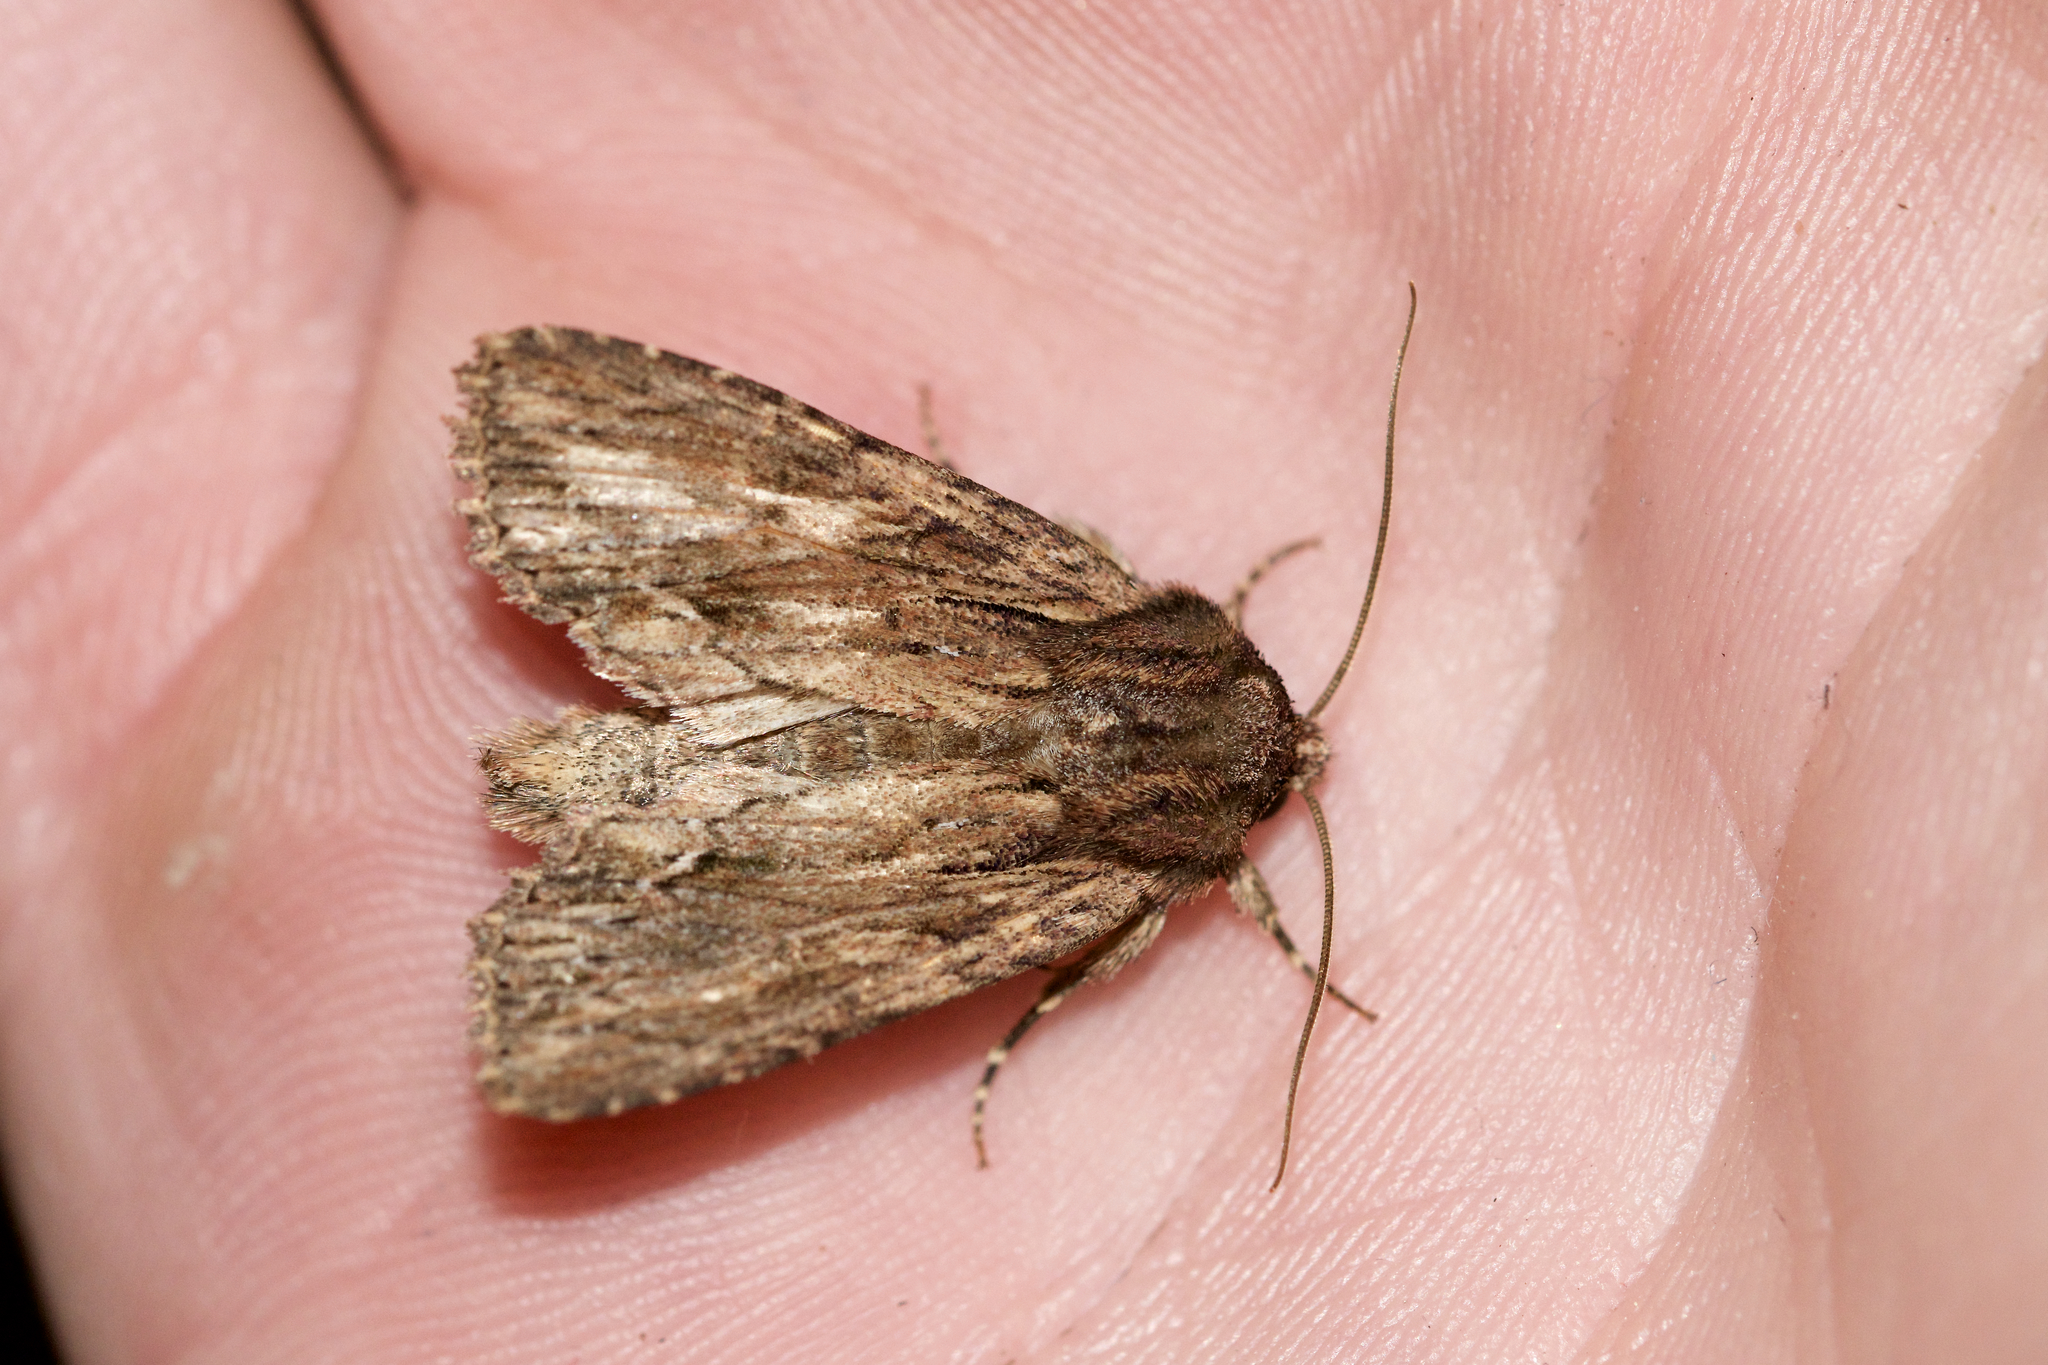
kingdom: Animalia
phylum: Arthropoda
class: Insecta
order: Lepidoptera
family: Noctuidae
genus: Achatia
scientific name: Achatia confusa
